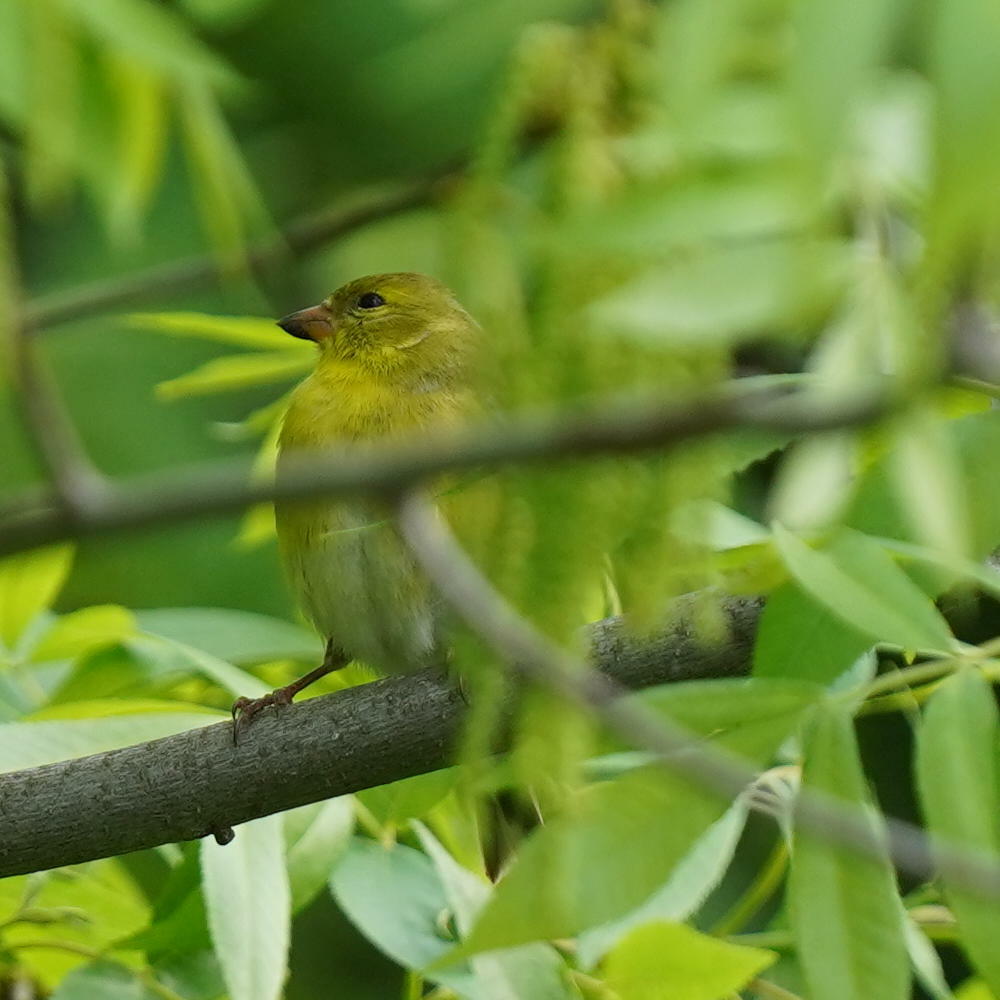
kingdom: Animalia
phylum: Chordata
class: Aves
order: Passeriformes
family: Fringillidae
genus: Spinus
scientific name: Spinus tristis
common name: American goldfinch
